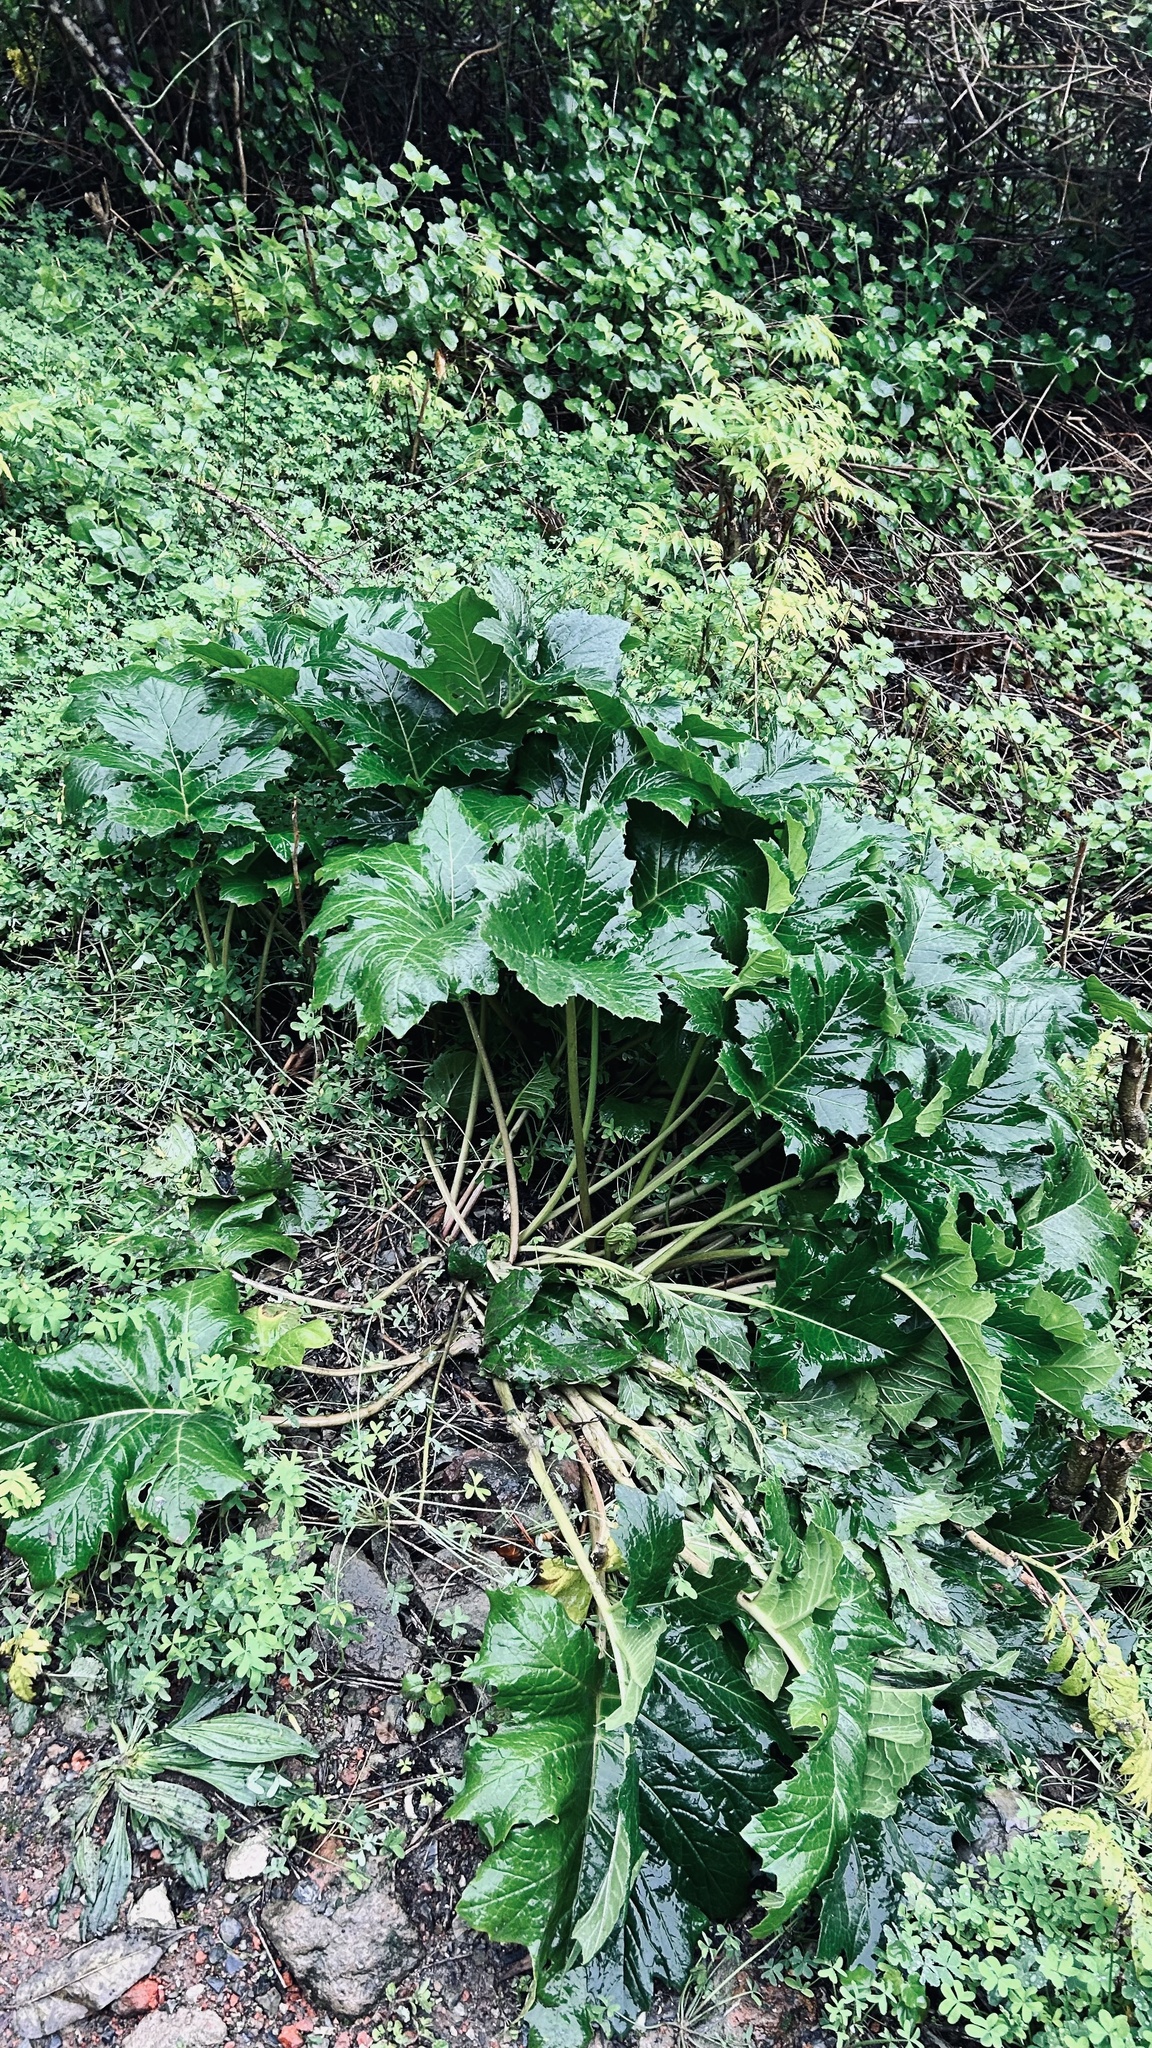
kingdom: Plantae
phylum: Tracheophyta
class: Magnoliopsida
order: Lamiales
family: Acanthaceae
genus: Acanthus
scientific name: Acanthus mollis
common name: Bear's-breech
